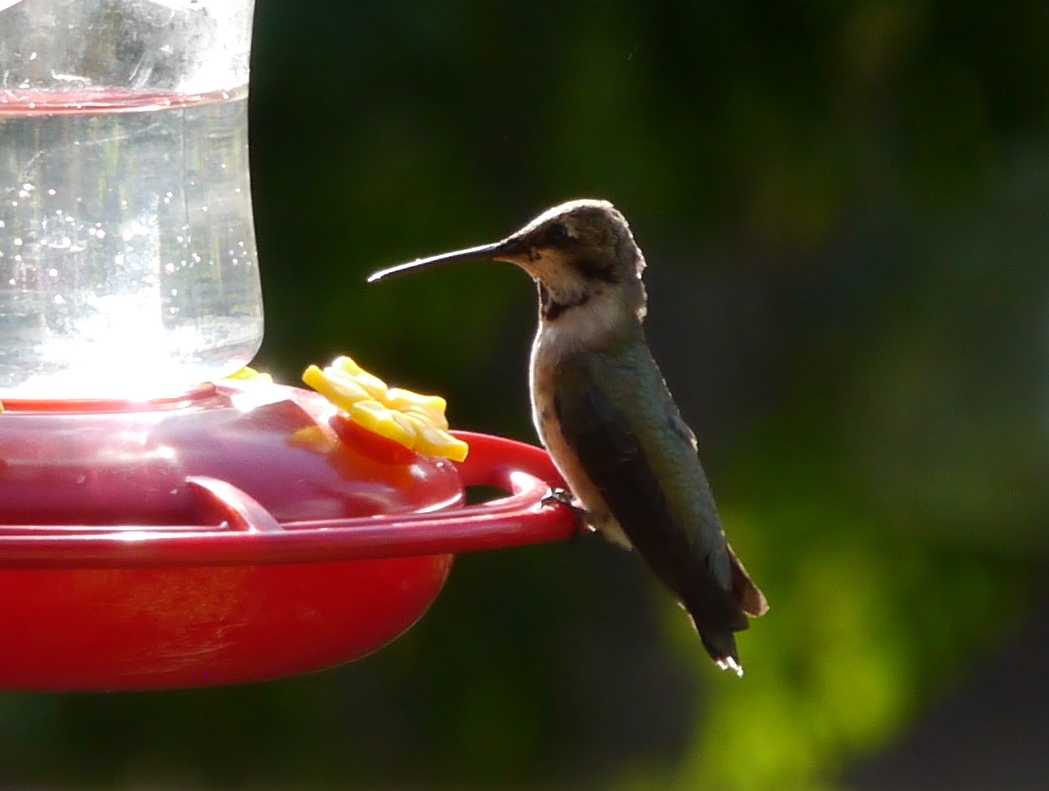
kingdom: Animalia
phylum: Chordata
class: Aves
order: Apodiformes
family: Trochilidae
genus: Archilochus
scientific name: Archilochus alexandri
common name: Black-chinned hummingbird
